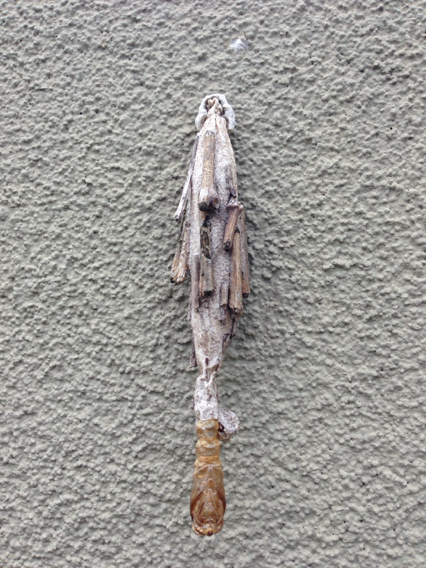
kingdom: Animalia
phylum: Arthropoda
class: Insecta
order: Lepidoptera
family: Psychidae
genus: Metura
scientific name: Metura elongatus
